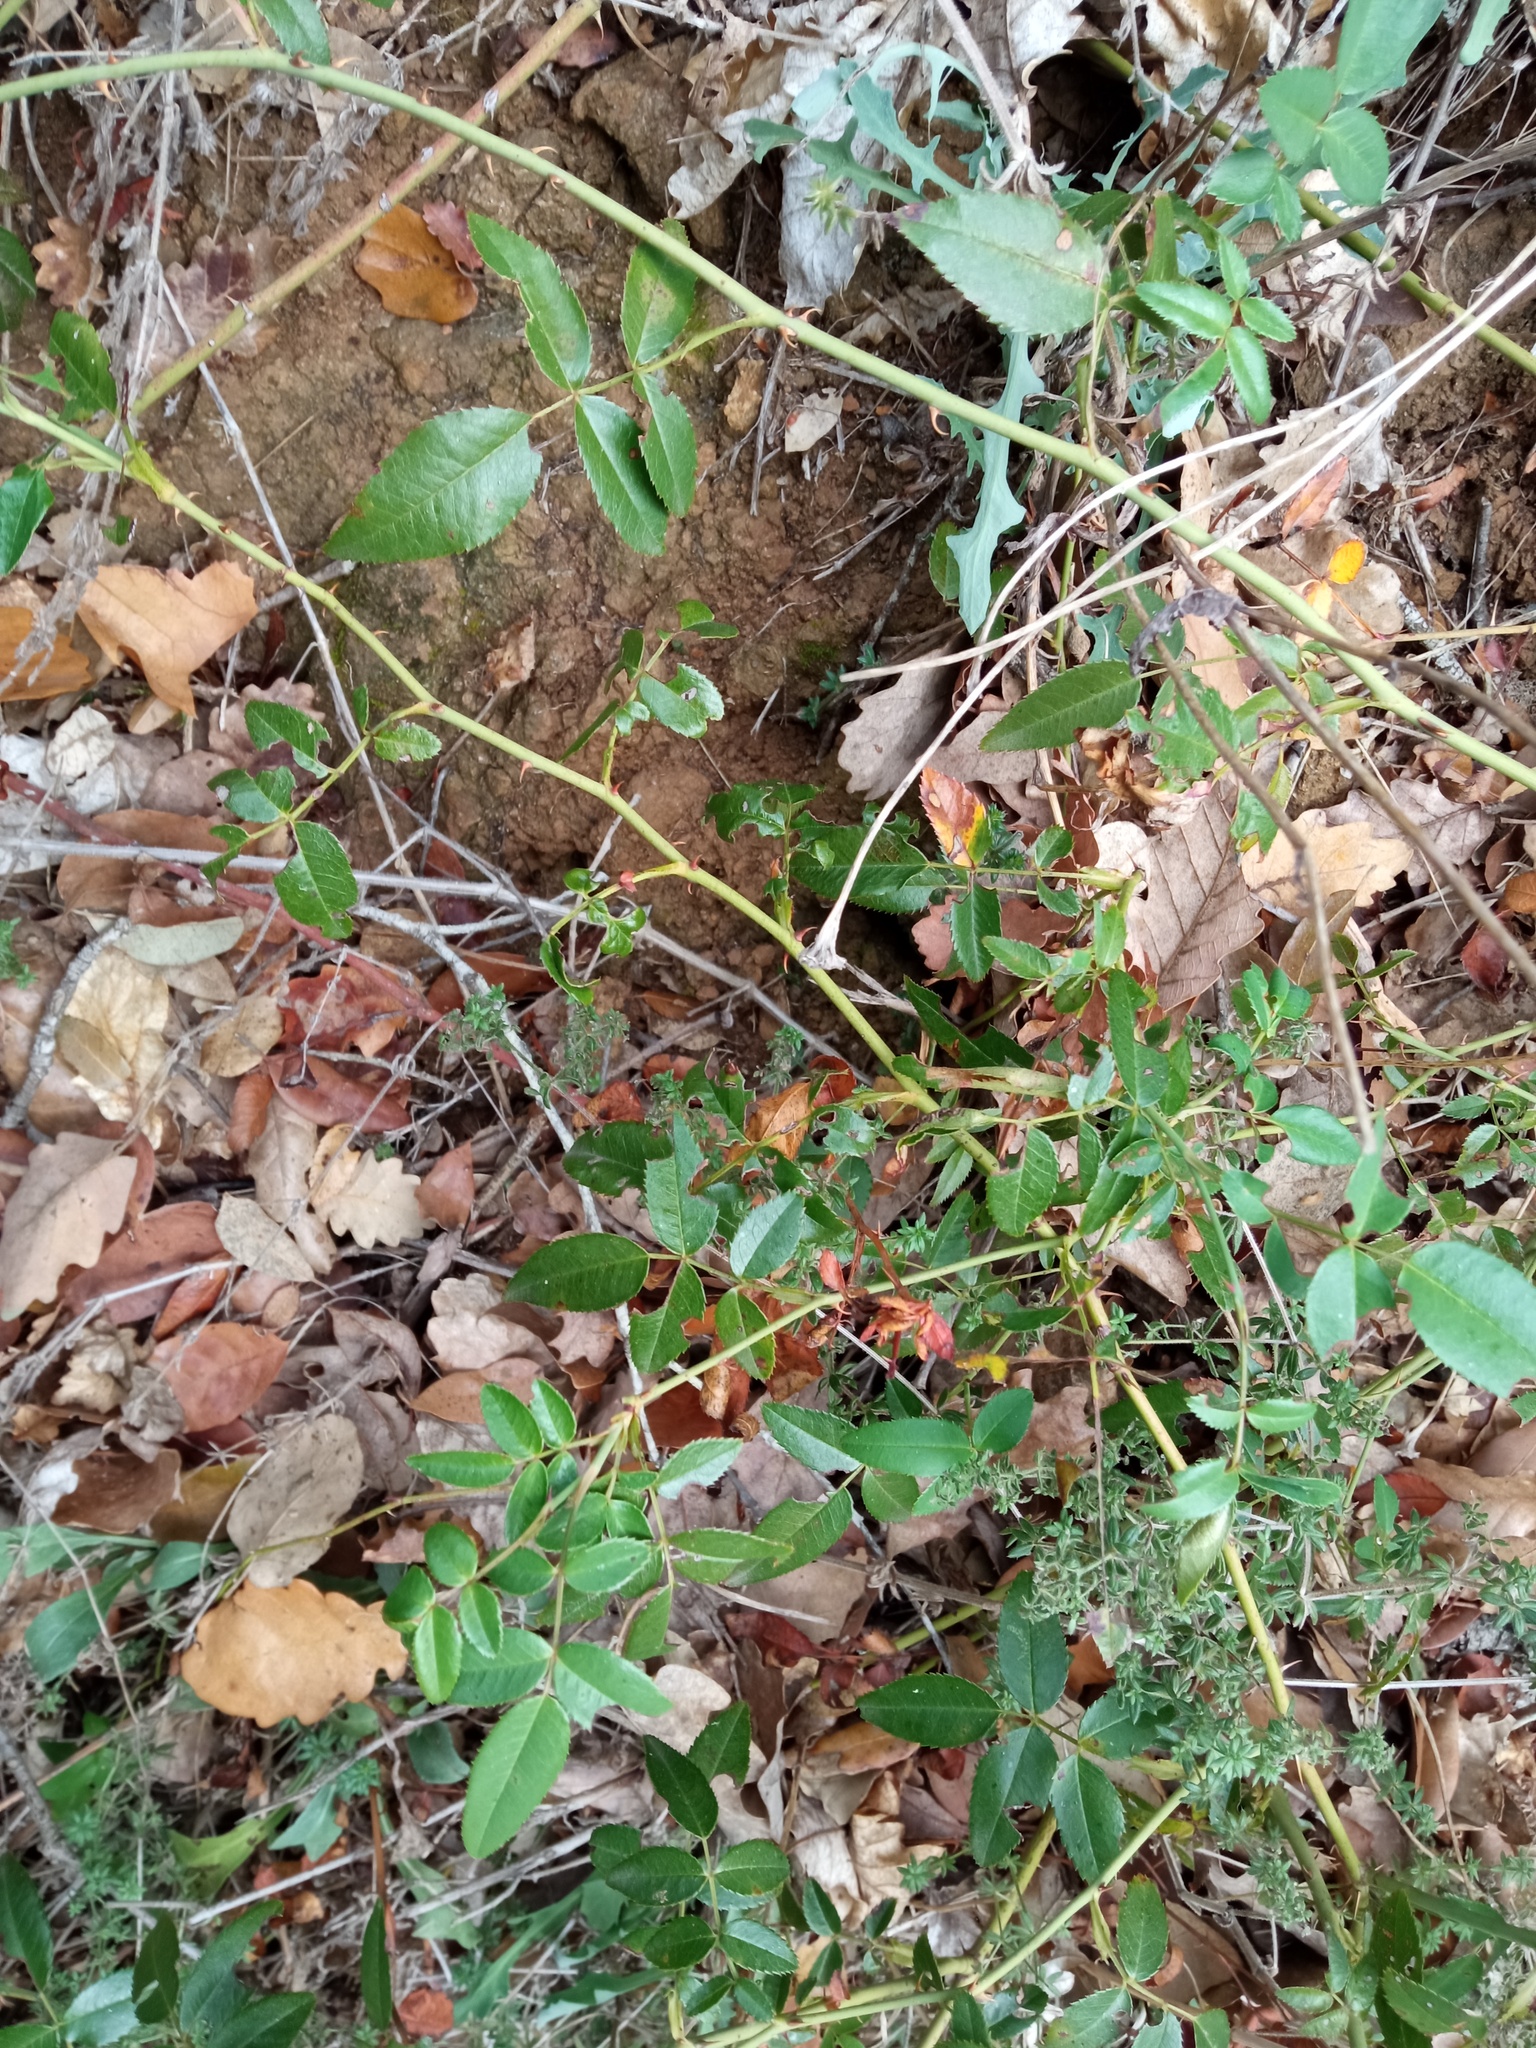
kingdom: Plantae
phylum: Tracheophyta
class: Magnoliopsida
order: Rosales
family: Rosaceae
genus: Rosa
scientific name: Rosa sempervirens
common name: Evergreen rose
